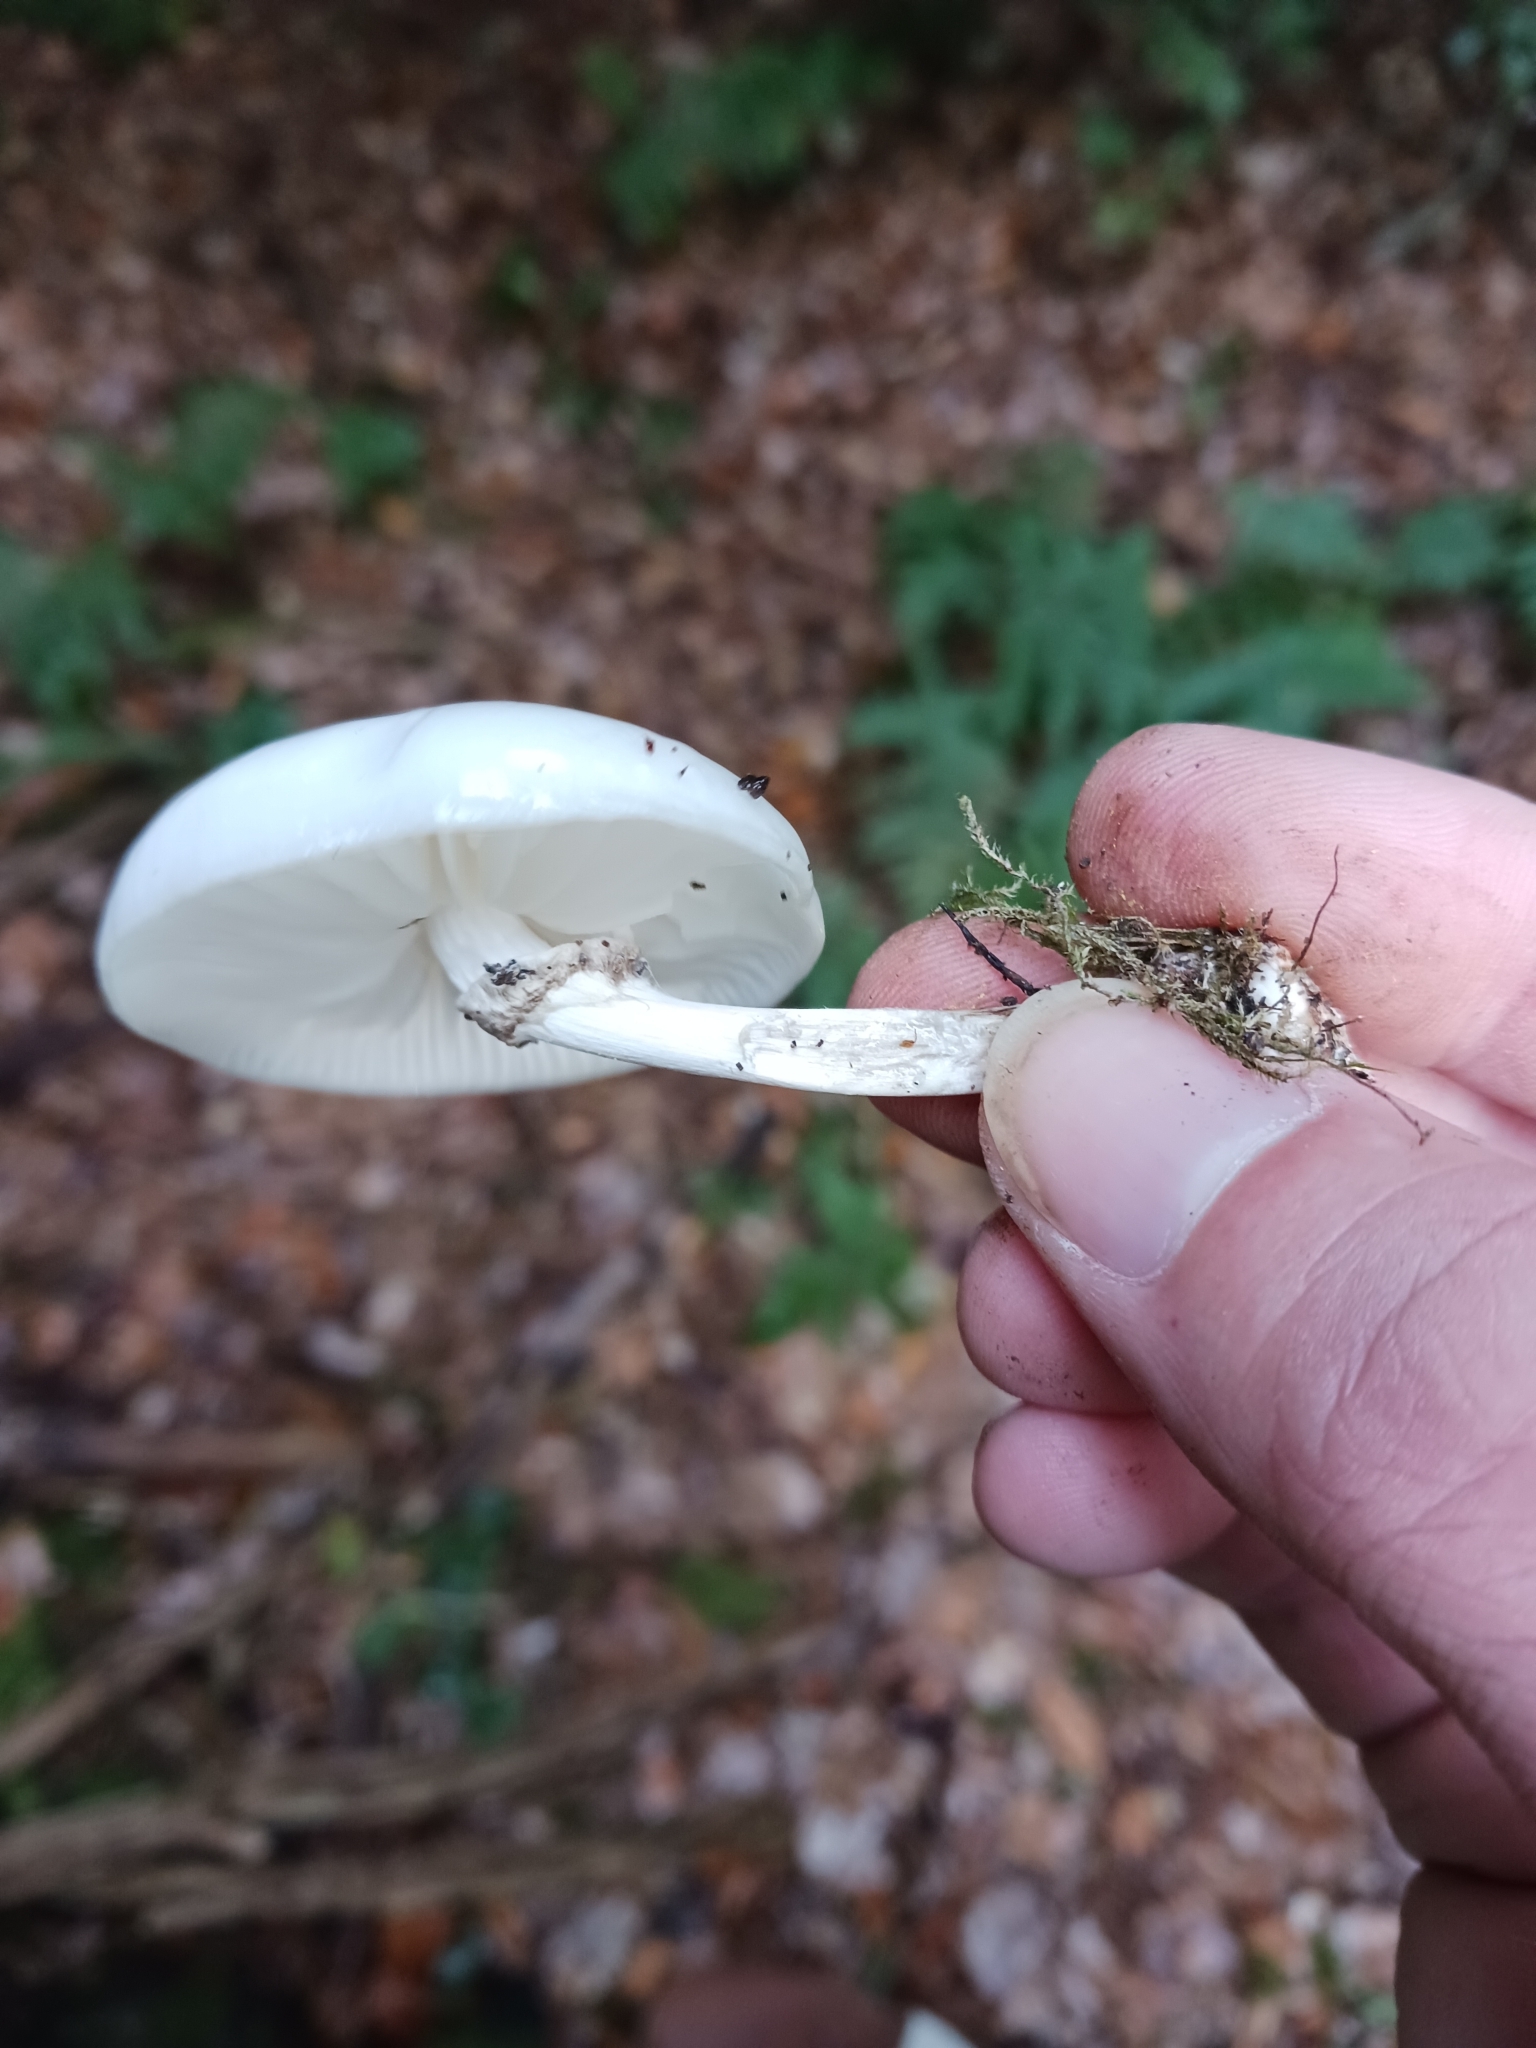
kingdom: Fungi
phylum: Basidiomycota
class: Agaricomycetes
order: Agaricales
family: Physalacriaceae
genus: Mucidula
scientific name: Mucidula mucida
